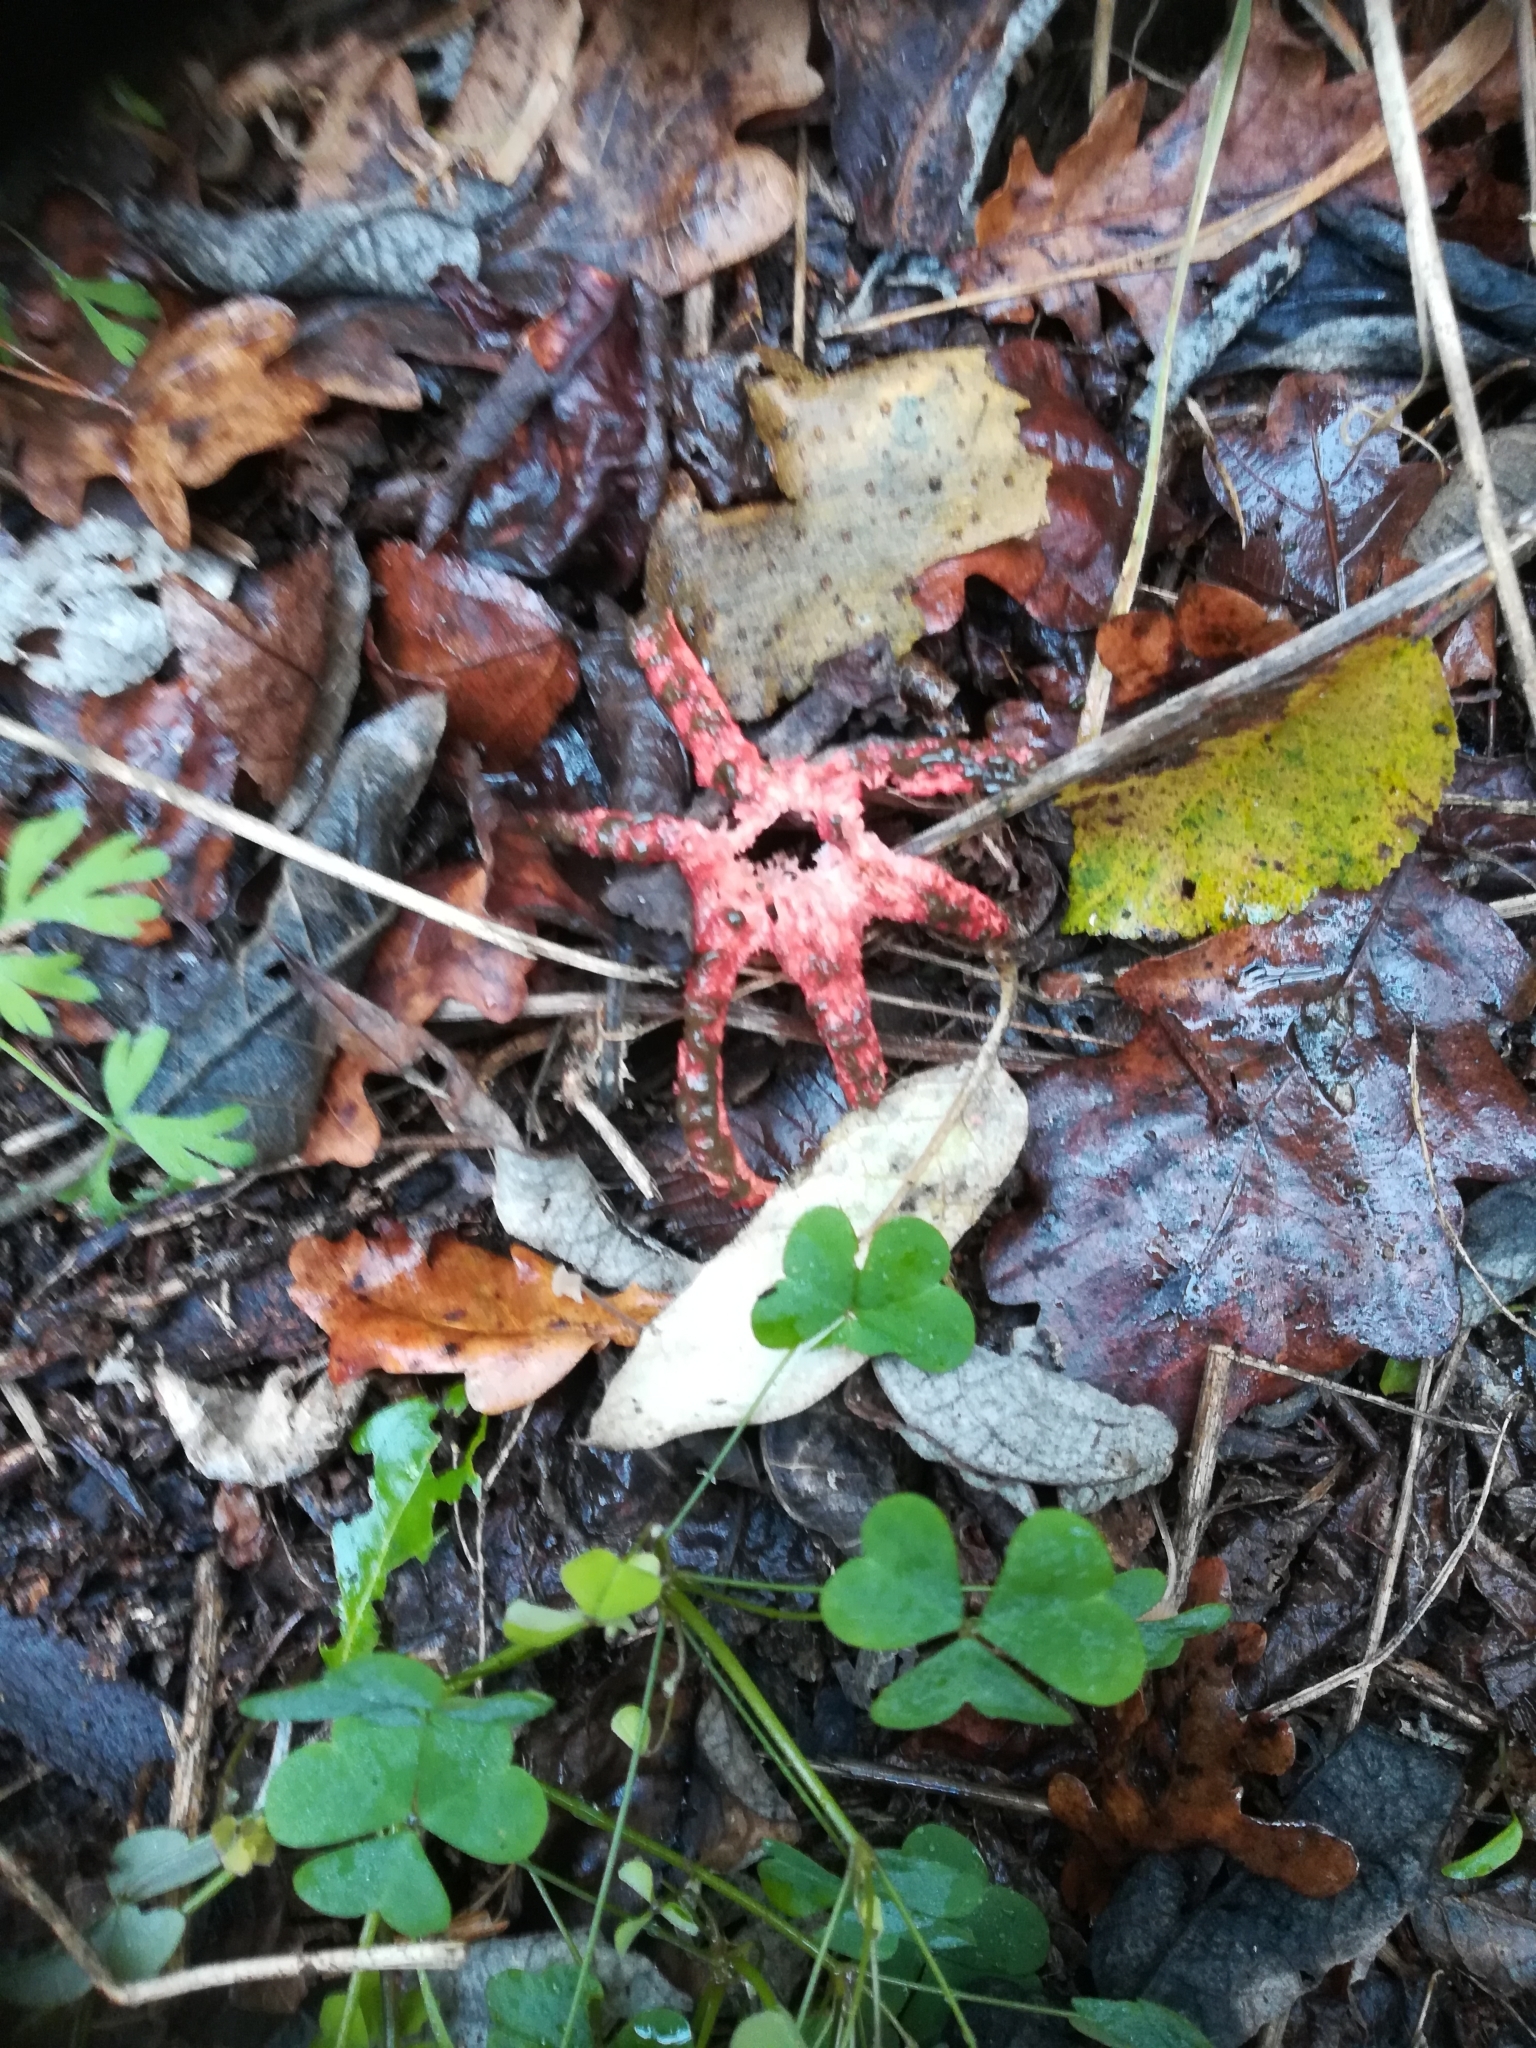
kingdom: Fungi
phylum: Basidiomycota
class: Agaricomycetes
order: Phallales
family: Phallaceae
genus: Clathrus
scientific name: Clathrus archeri
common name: Devil's fingers
